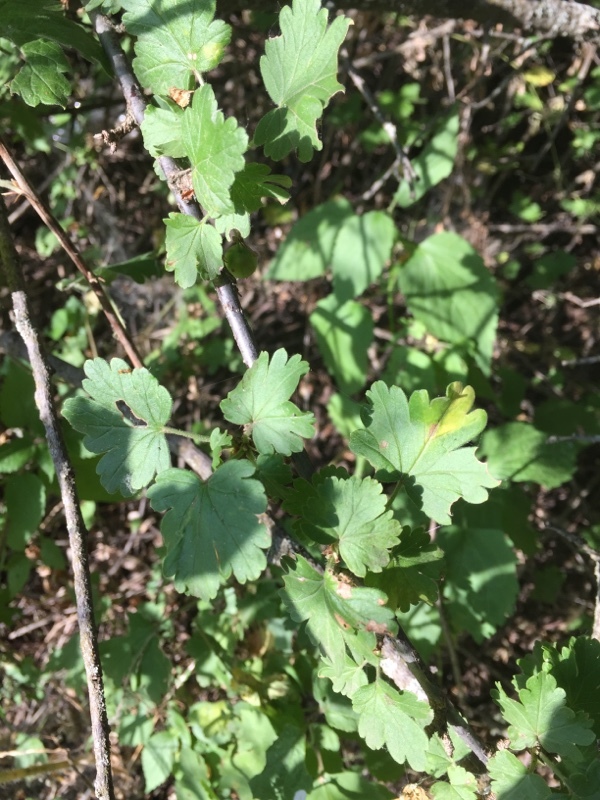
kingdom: Plantae
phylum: Tracheophyta
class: Magnoliopsida
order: Saxifragales
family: Grossulariaceae
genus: Ribes
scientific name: Ribes uva-crispa
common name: Gooseberry
